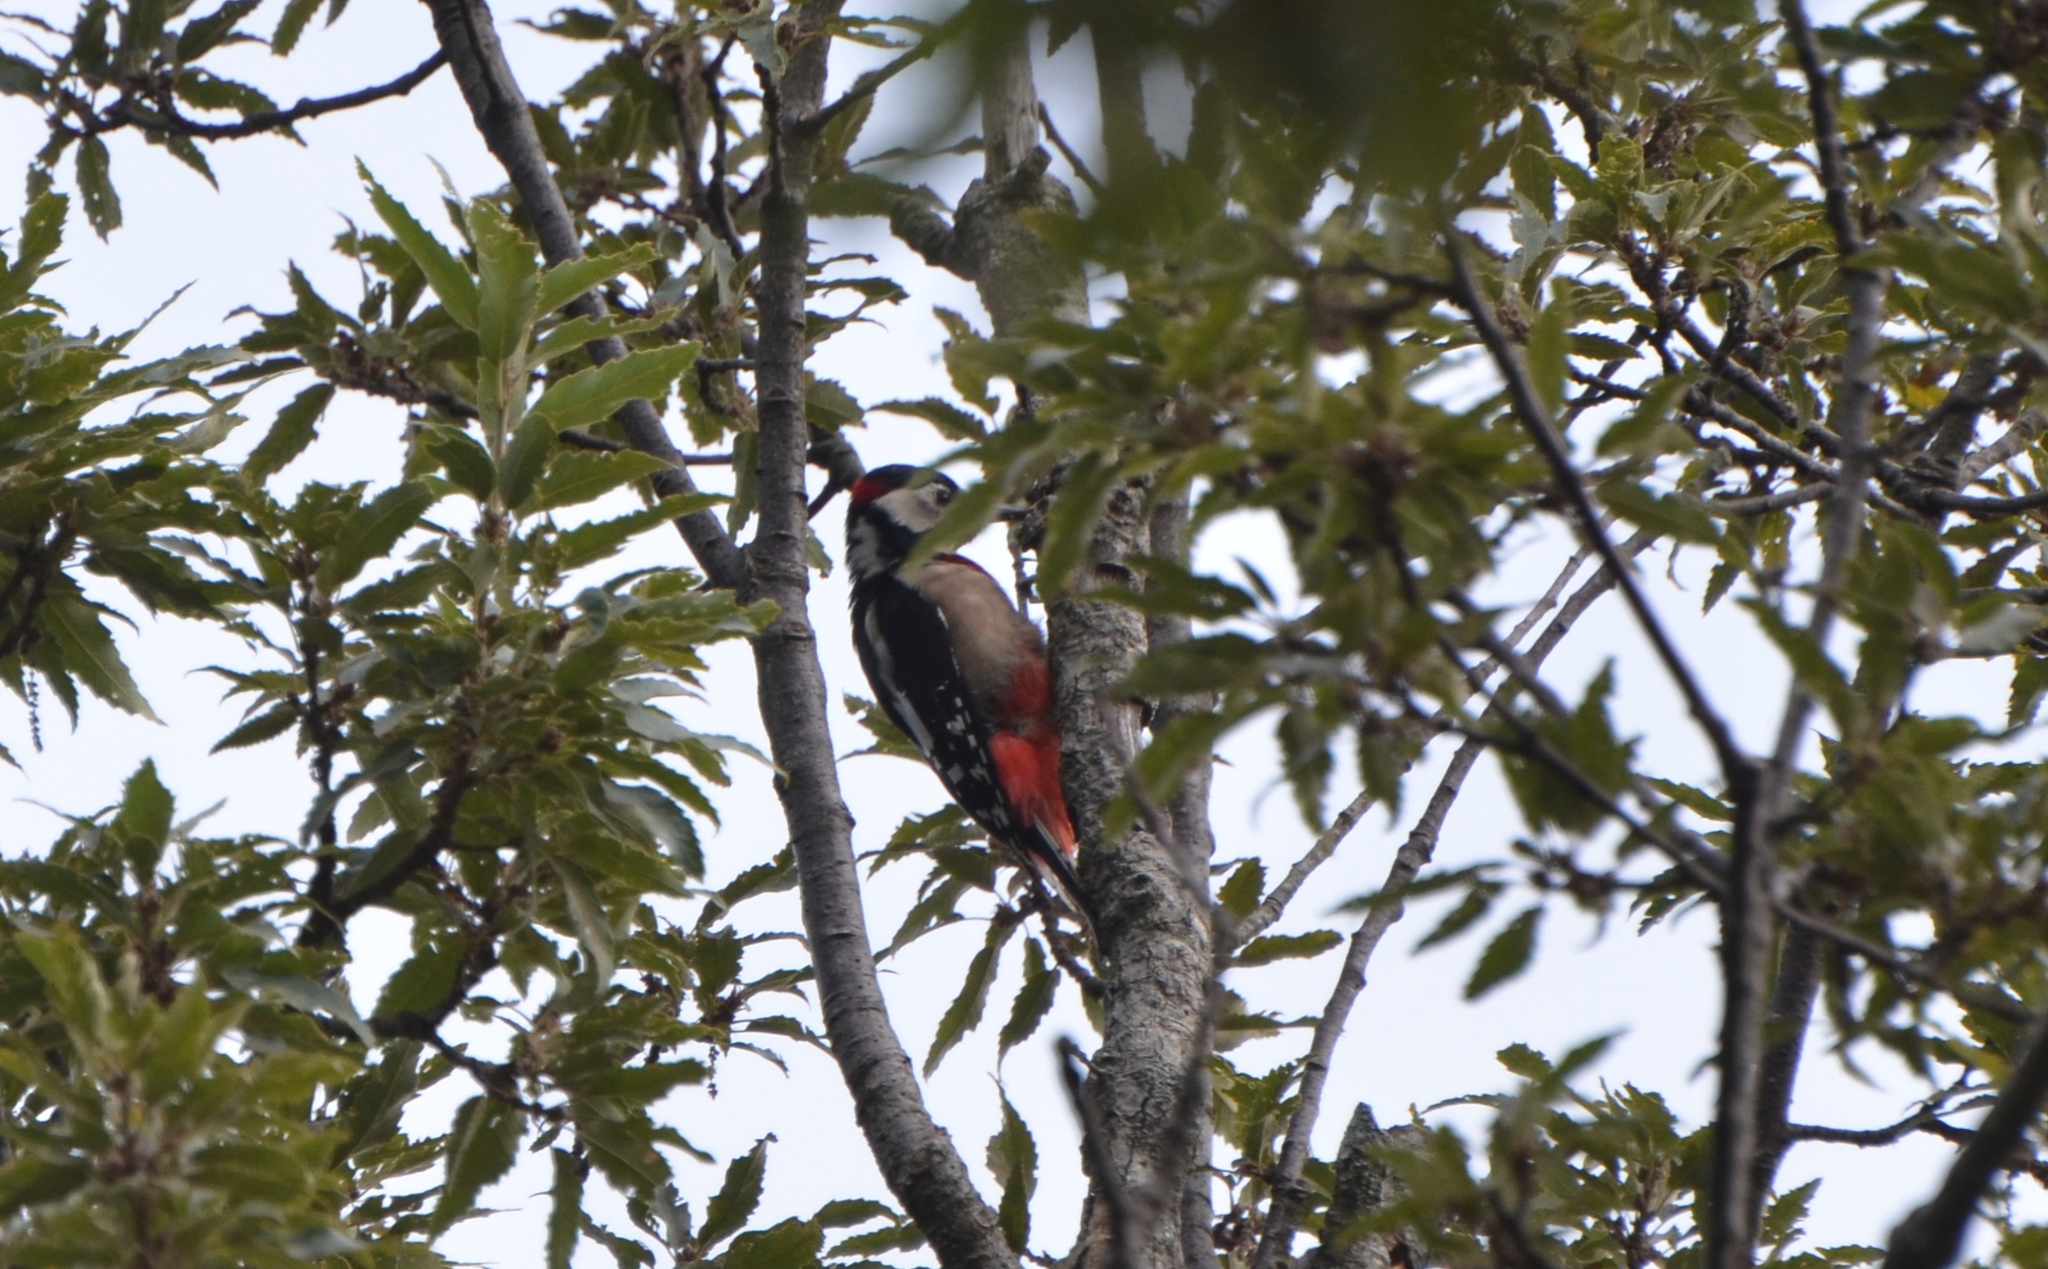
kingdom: Animalia
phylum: Chordata
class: Aves
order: Piciformes
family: Picidae
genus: Dendrocopos
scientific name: Dendrocopos major
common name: Great spotted woodpecker
